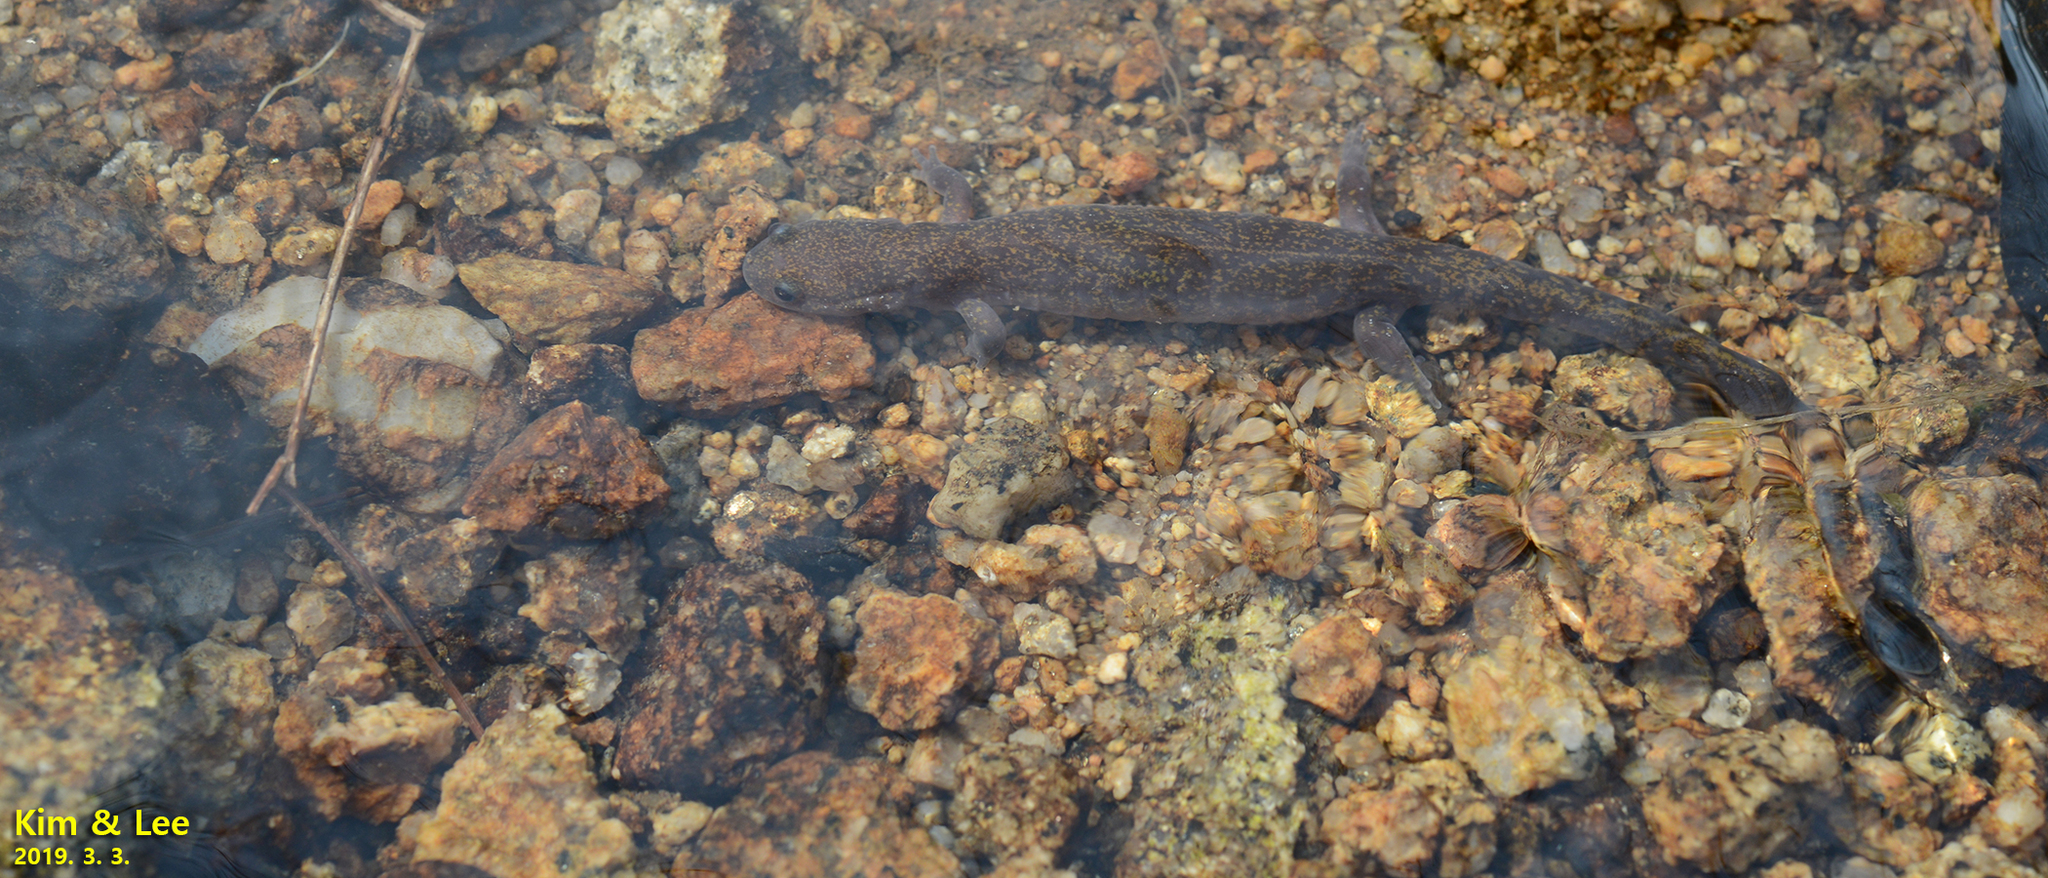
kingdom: Animalia
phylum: Chordata
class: Amphibia
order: Caudata
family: Hynobiidae
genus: Hynobius
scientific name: Hynobius unisacculus
